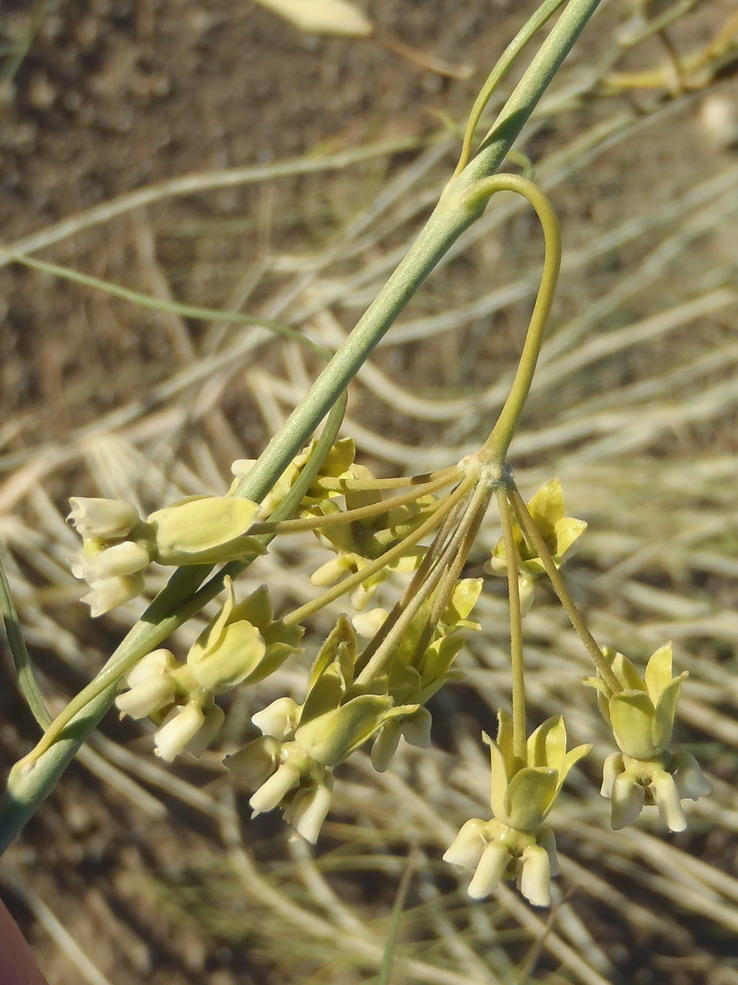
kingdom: Plantae
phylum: Tracheophyta
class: Magnoliopsida
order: Gentianales
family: Apocynaceae
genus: Gomphocarpus
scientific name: Gomphocarpus filiformis
